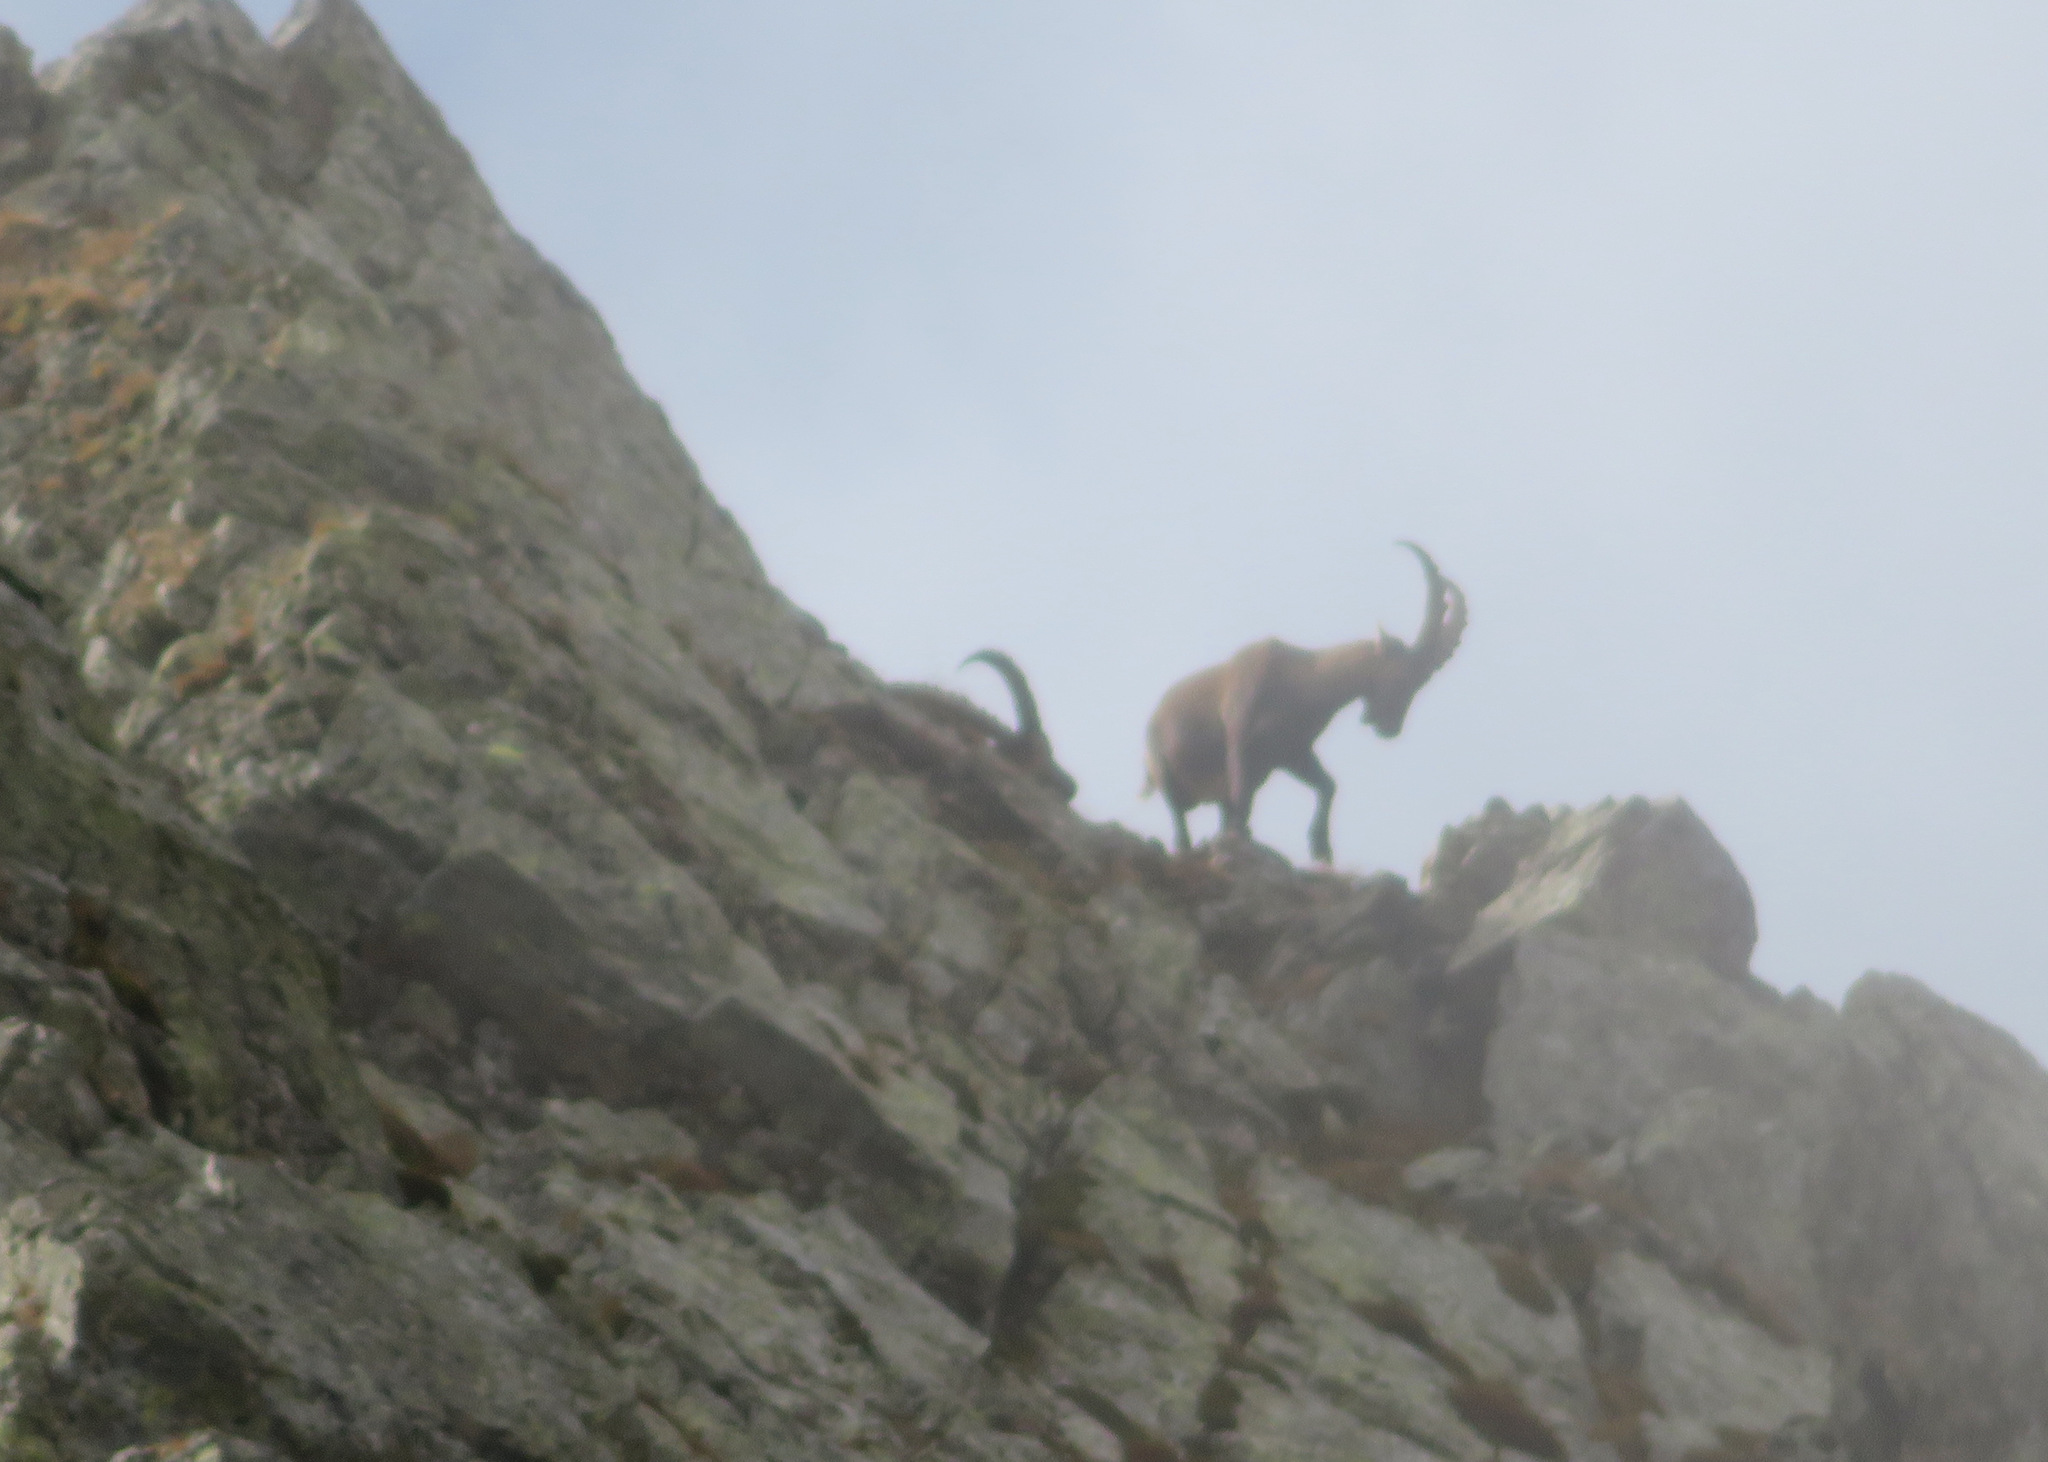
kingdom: Animalia
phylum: Chordata
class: Mammalia
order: Artiodactyla
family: Bovidae
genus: Capra
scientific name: Capra ibex
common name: Alpine ibex
